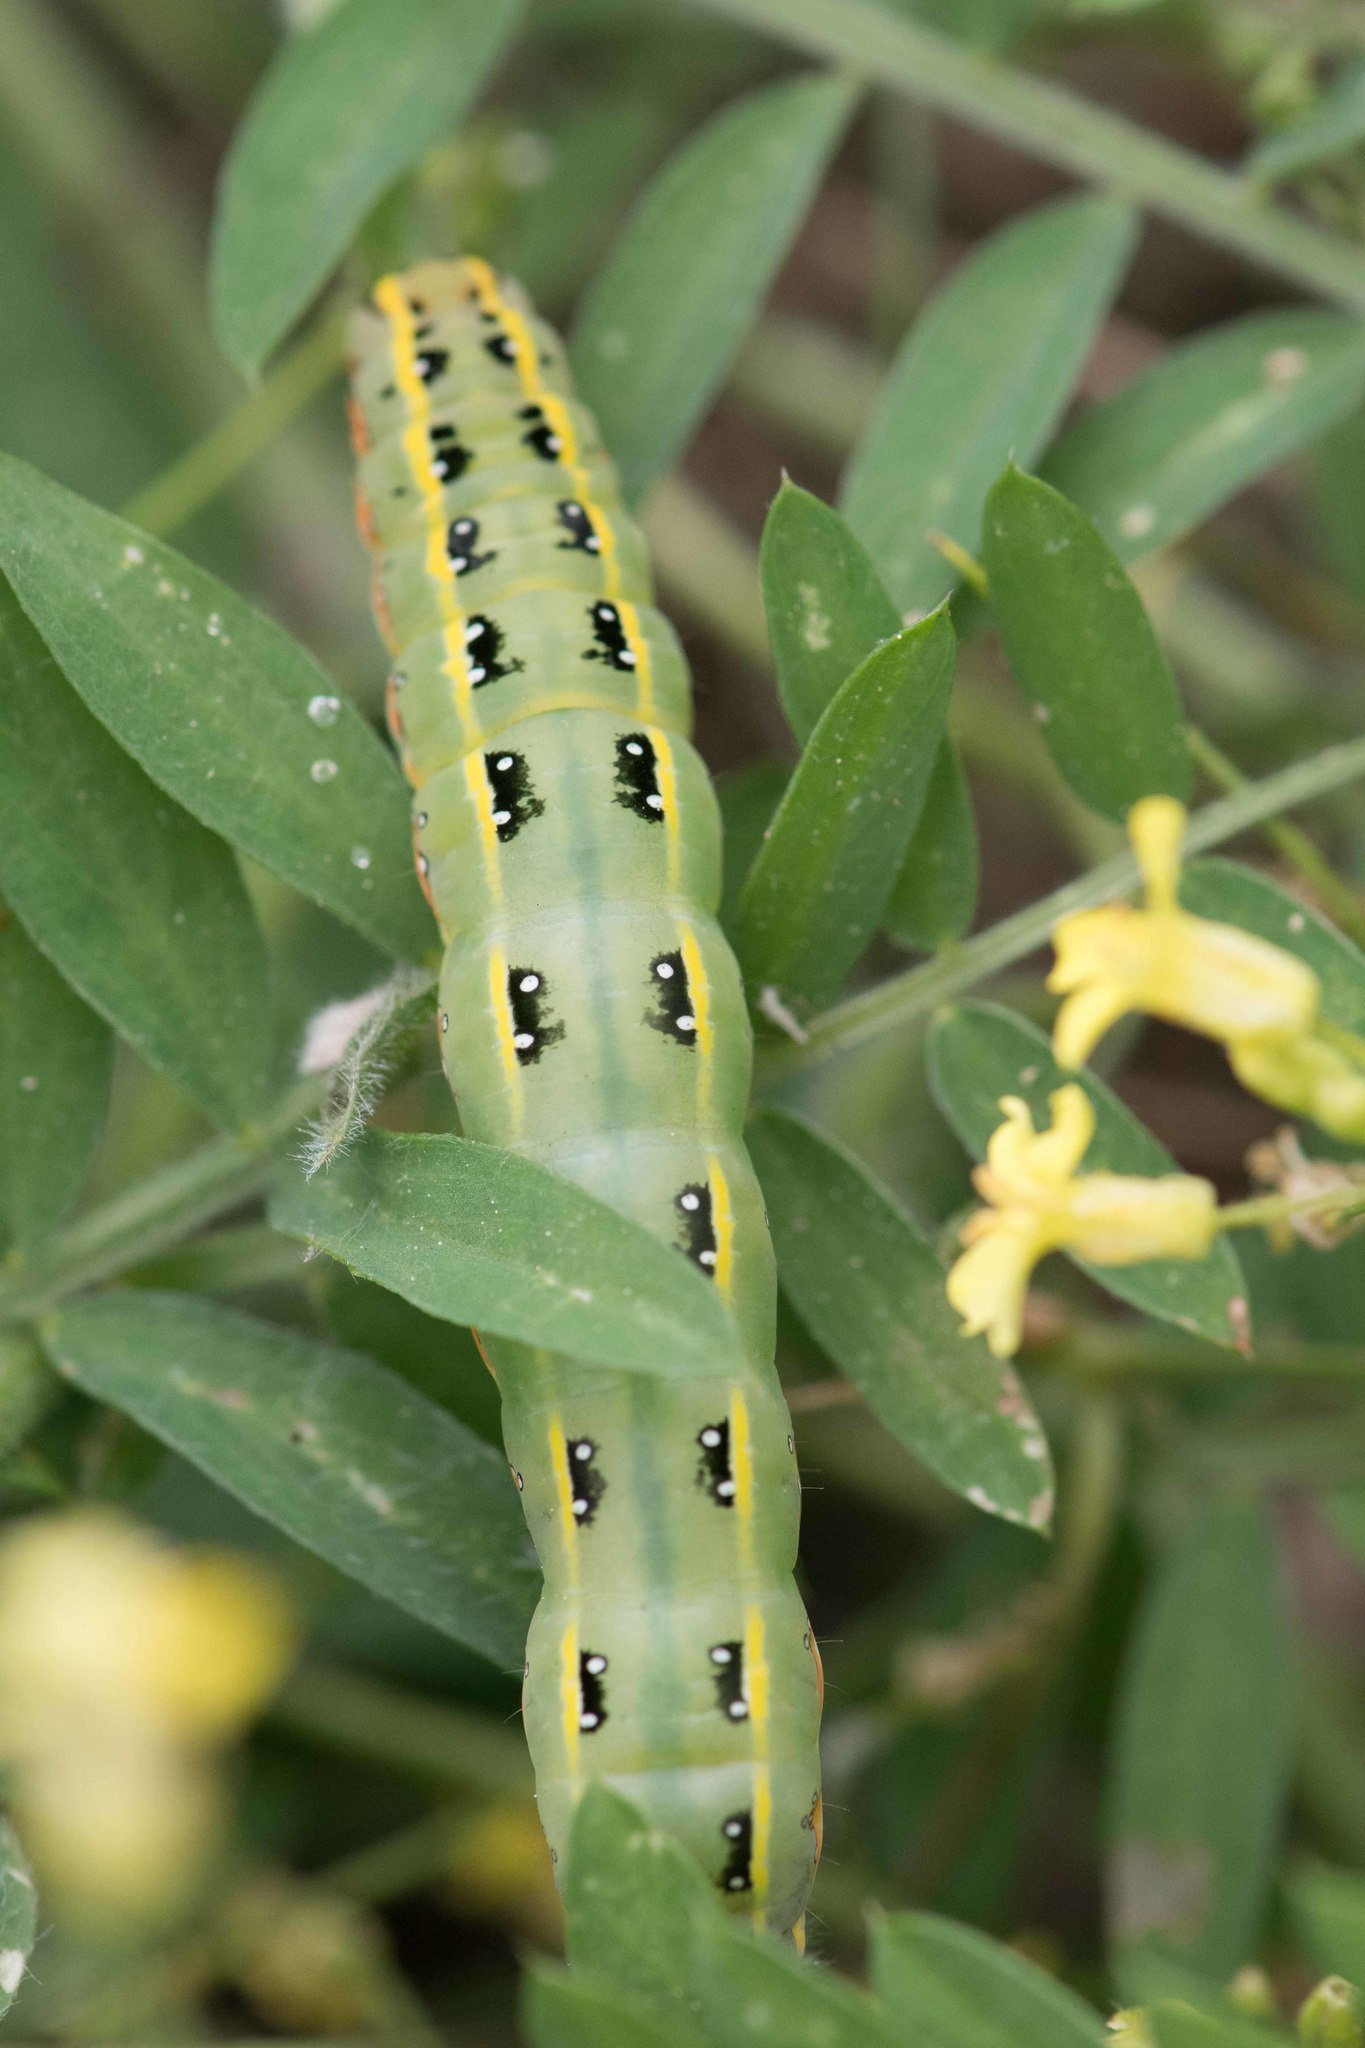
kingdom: Animalia
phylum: Arthropoda
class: Insecta
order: Lepidoptera
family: Noctuidae
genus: Xylena
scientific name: Xylena exsoleta
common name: Sword-grass
